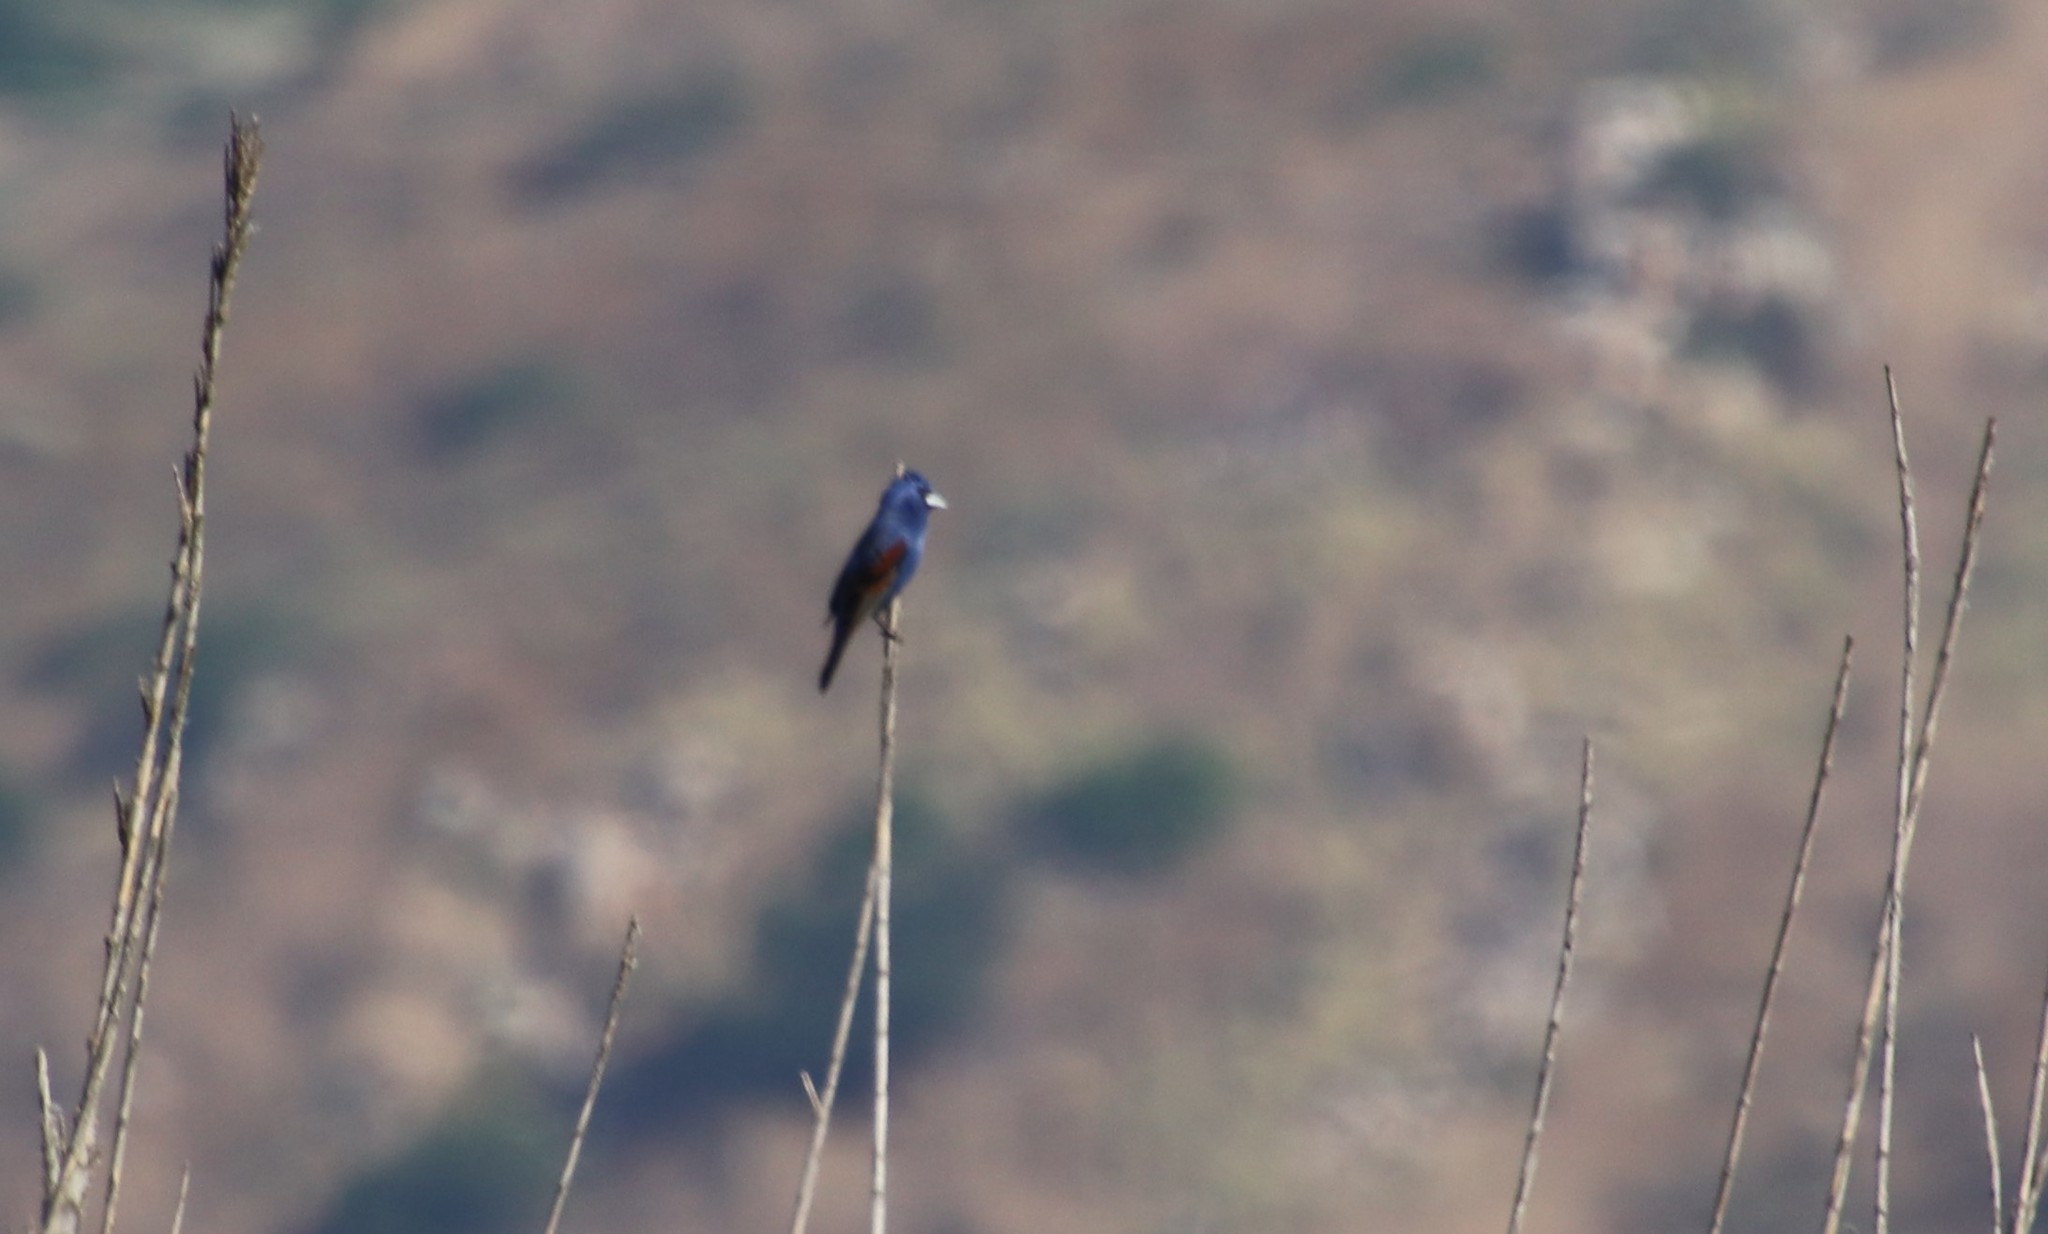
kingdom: Animalia
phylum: Chordata
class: Aves
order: Passeriformes
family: Cardinalidae
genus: Passerina
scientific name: Passerina caerulea
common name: Blue grosbeak
